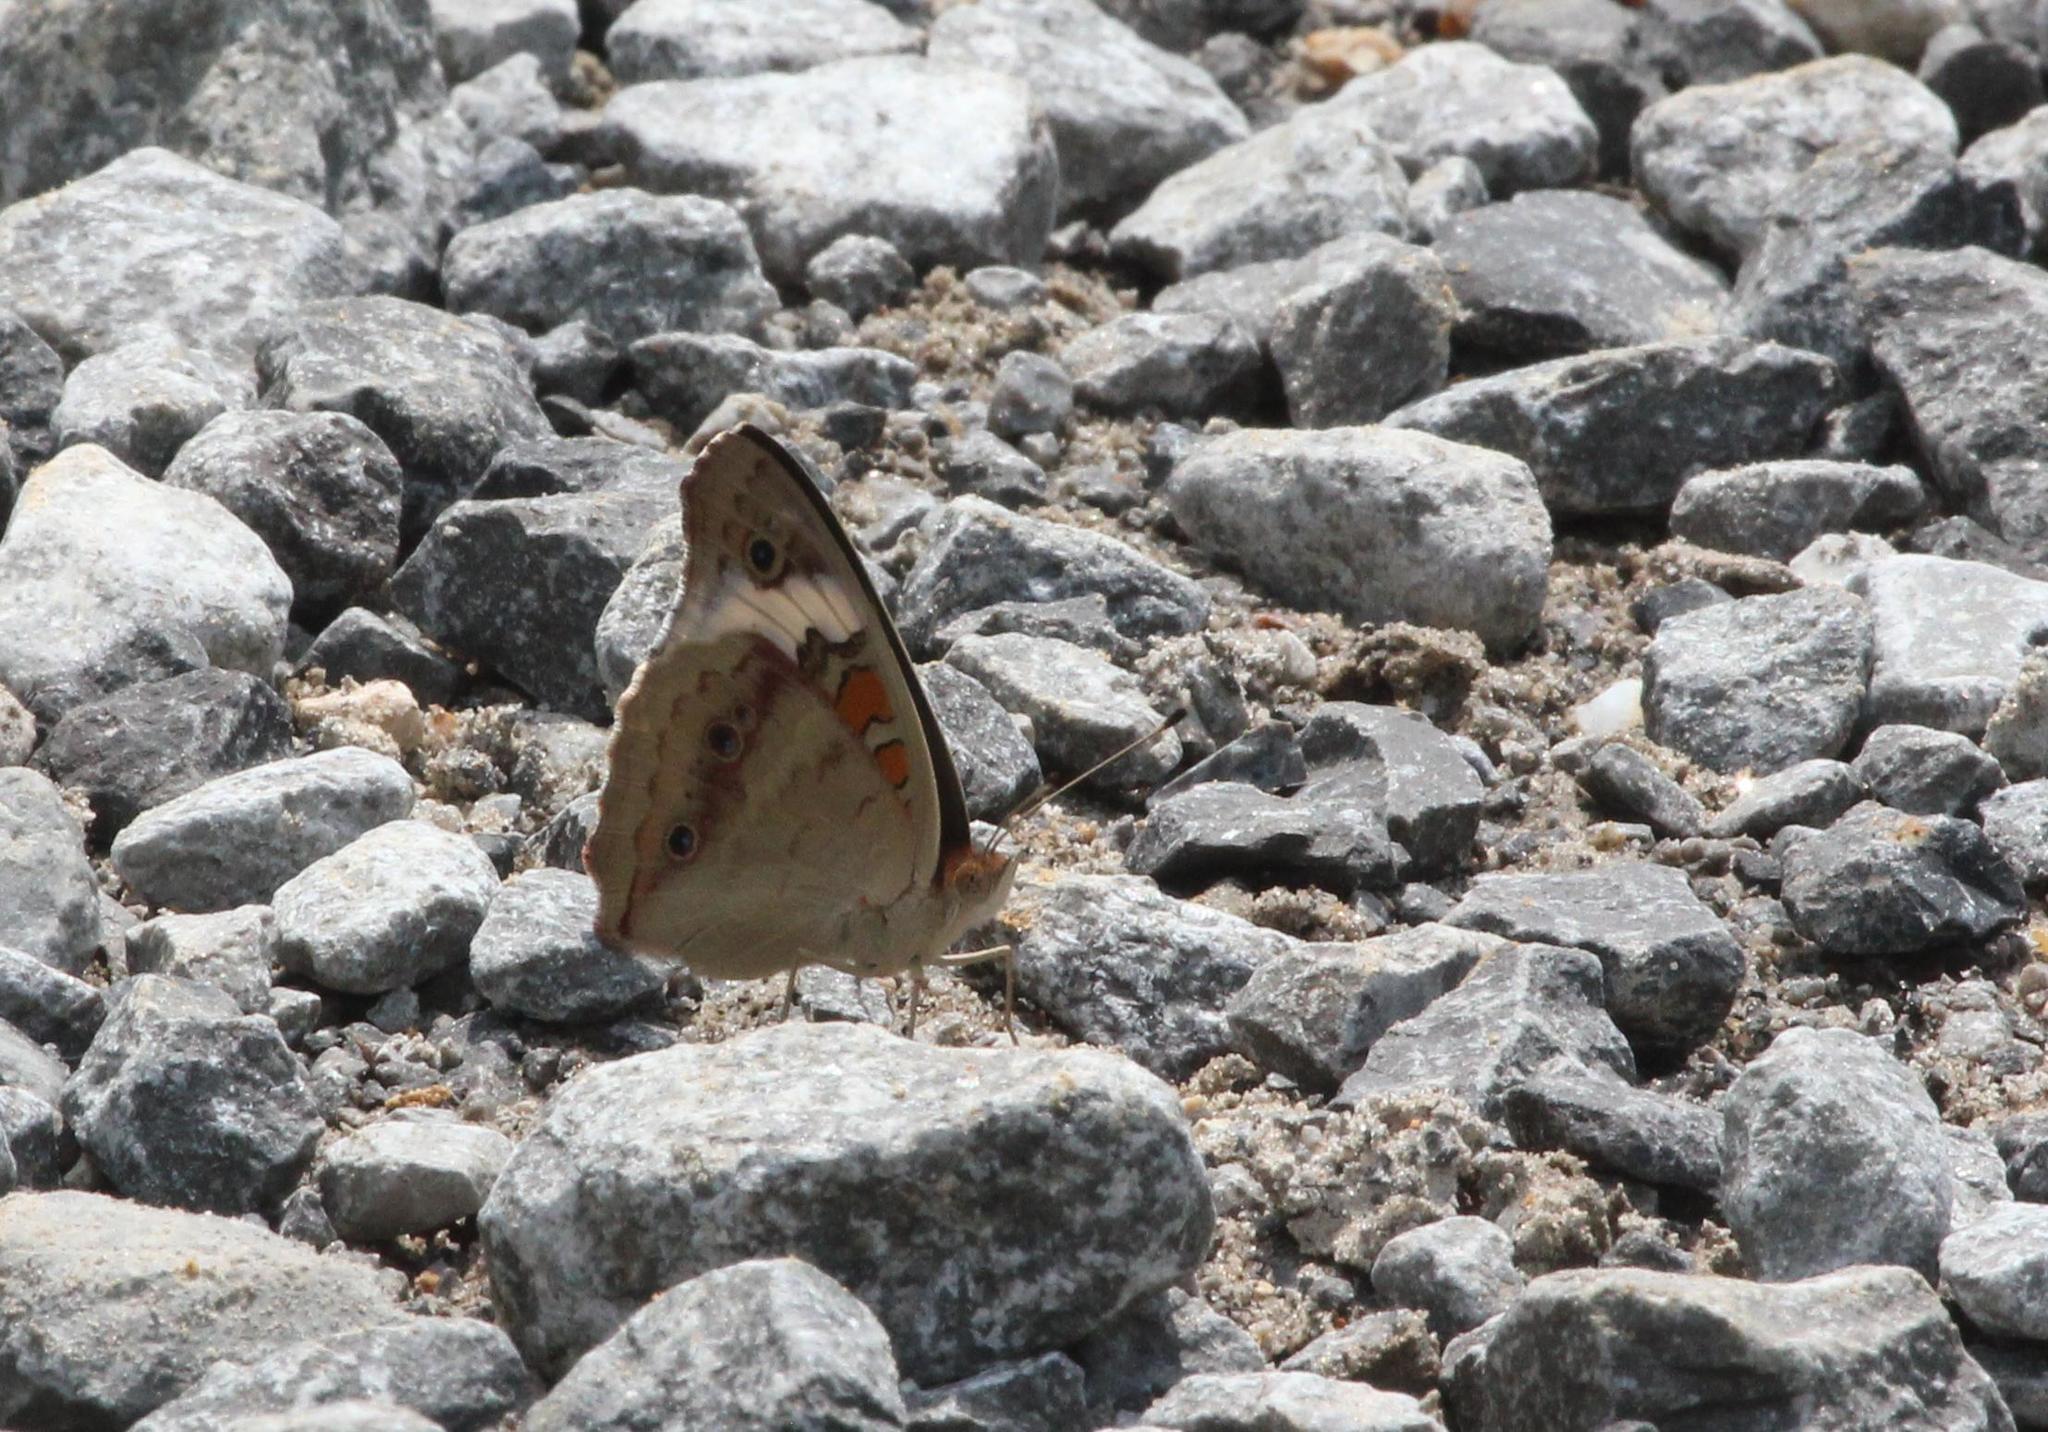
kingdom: Animalia
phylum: Arthropoda
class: Insecta
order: Lepidoptera
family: Nymphalidae
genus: Junonia
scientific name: Junonia coenia
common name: Common buckeye
